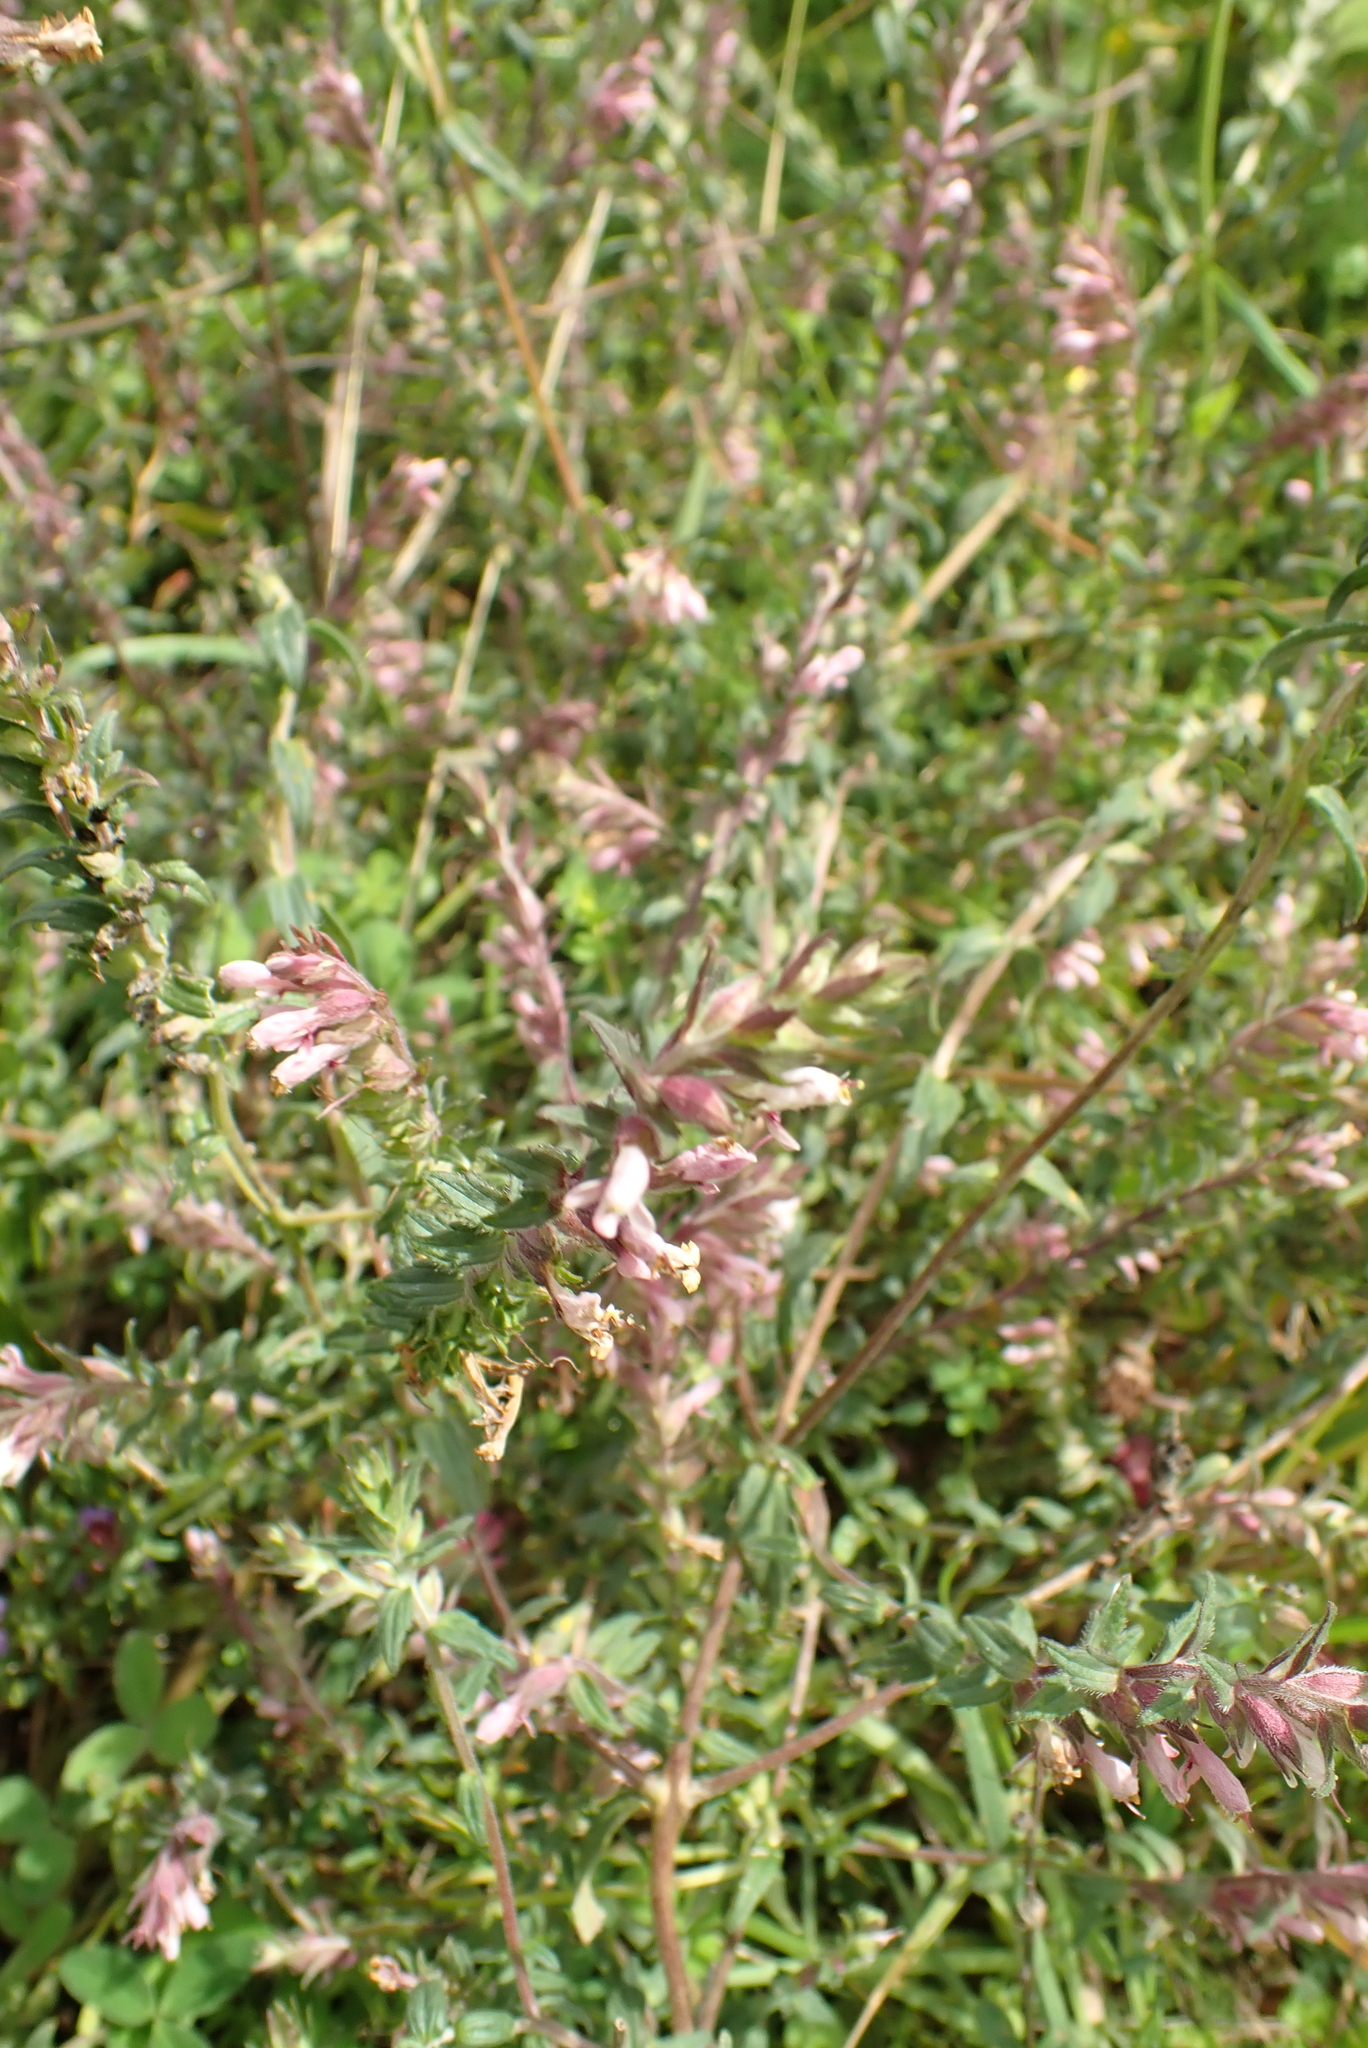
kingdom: Plantae
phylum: Tracheophyta
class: Magnoliopsida
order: Lamiales
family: Orobanchaceae
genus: Odontites
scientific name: Odontites vulgaris
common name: Broomrape
